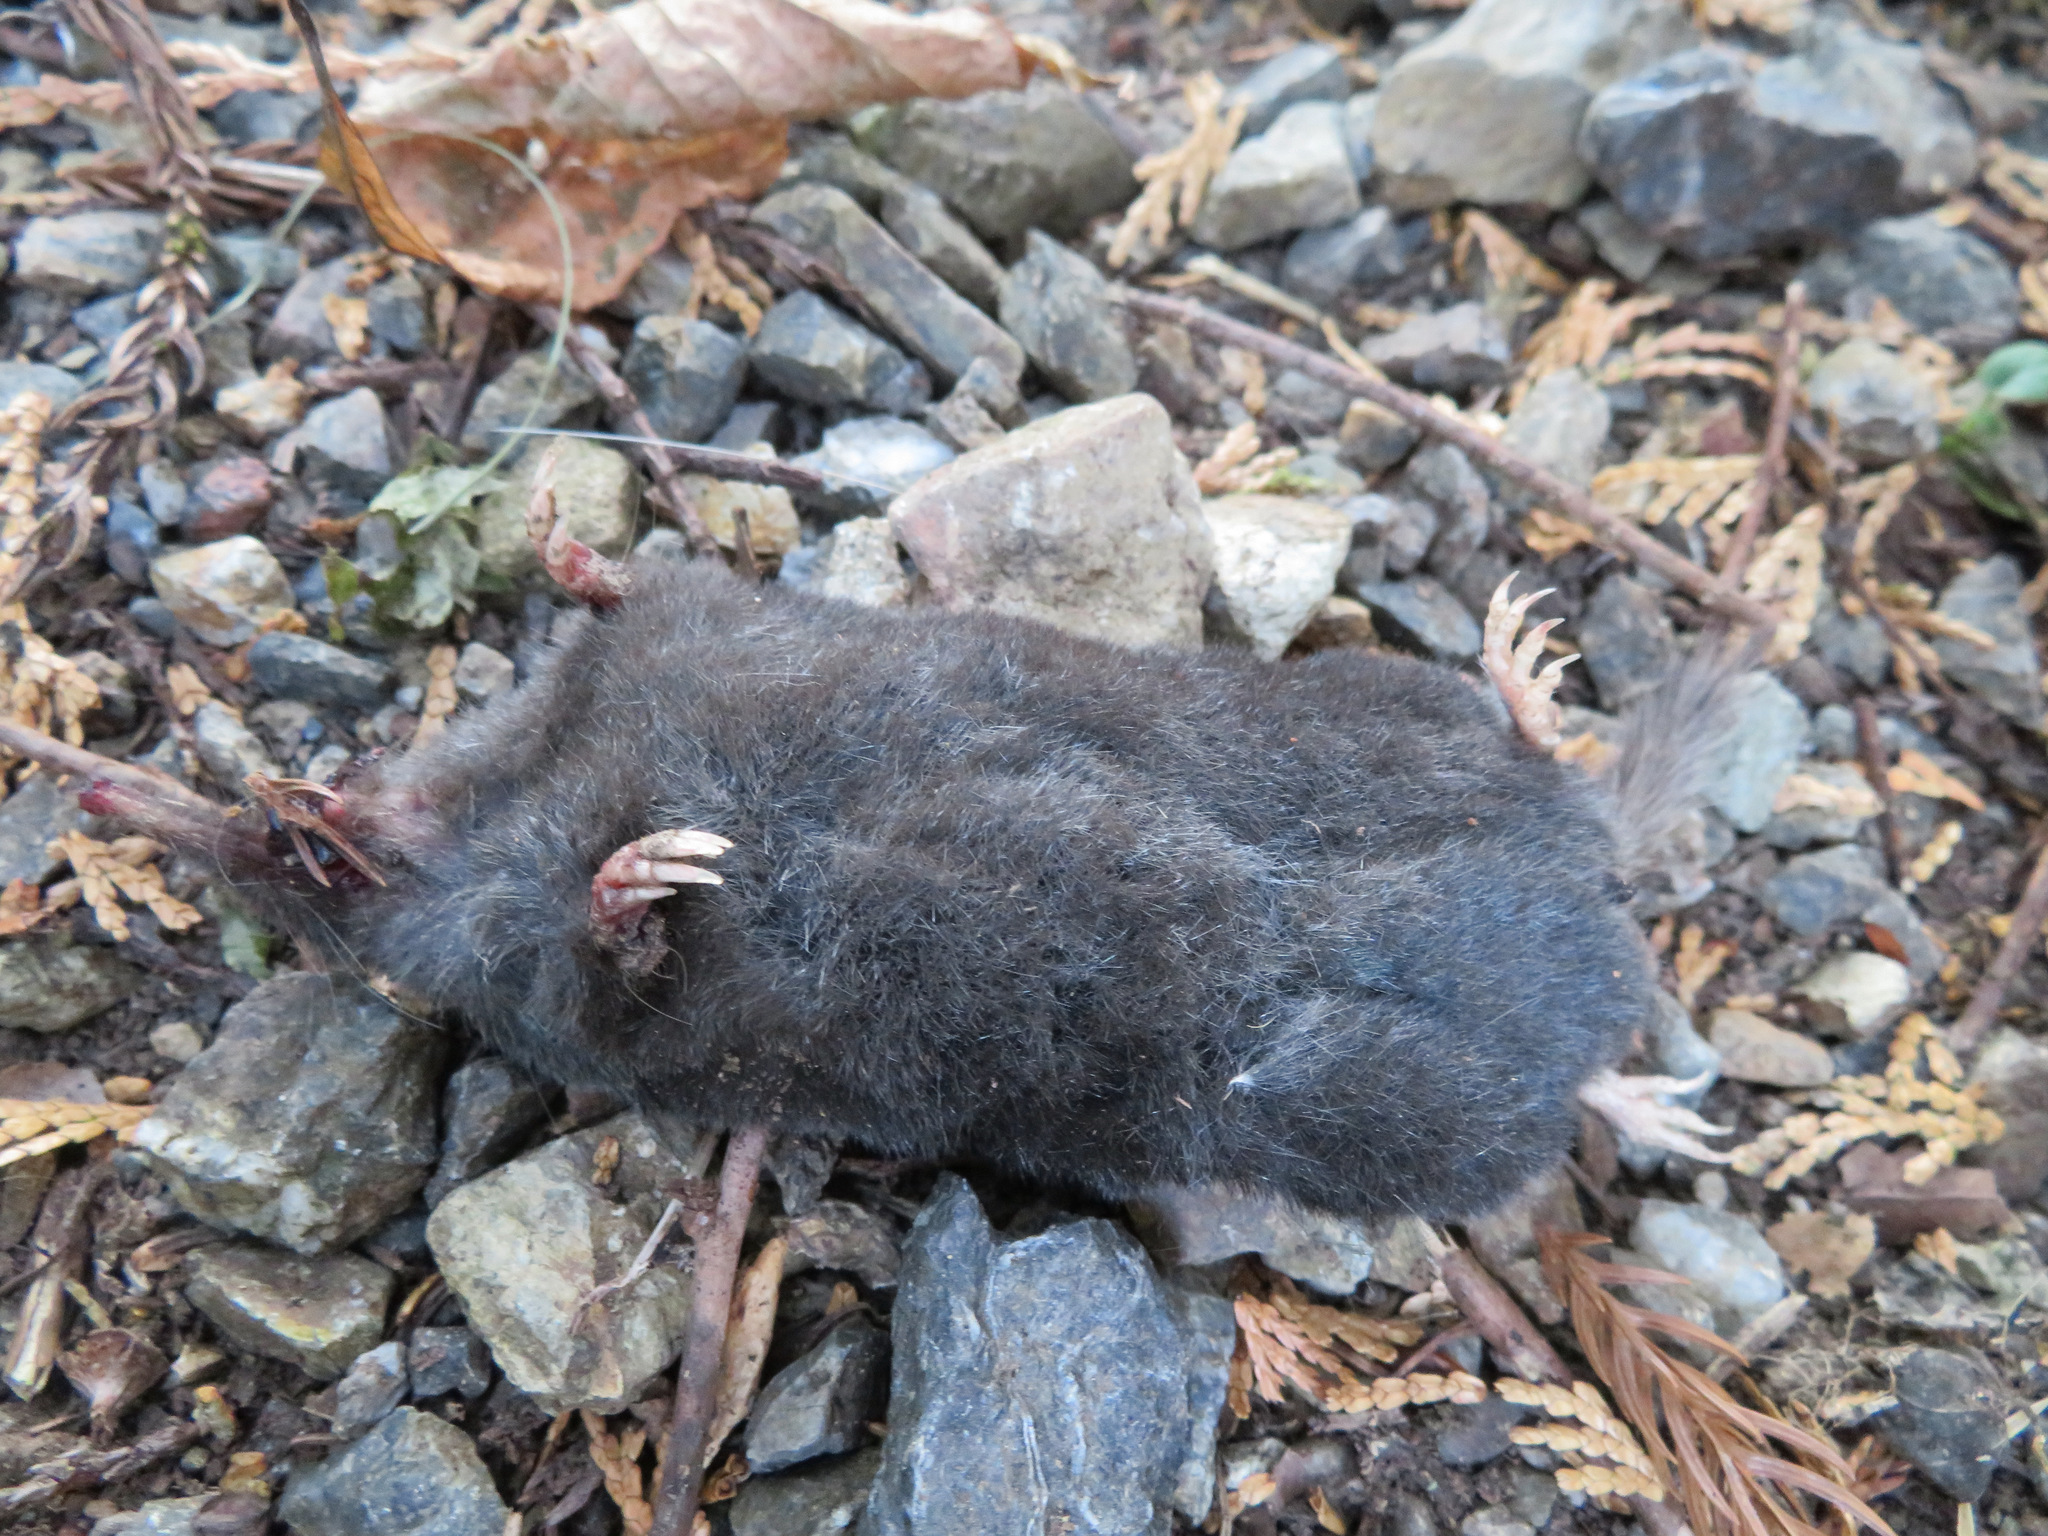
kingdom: Animalia
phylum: Chordata
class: Mammalia
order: Soricomorpha
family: Talpidae
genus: Urotrichus
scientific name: Urotrichus talpoides
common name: Japanese shrew mole
